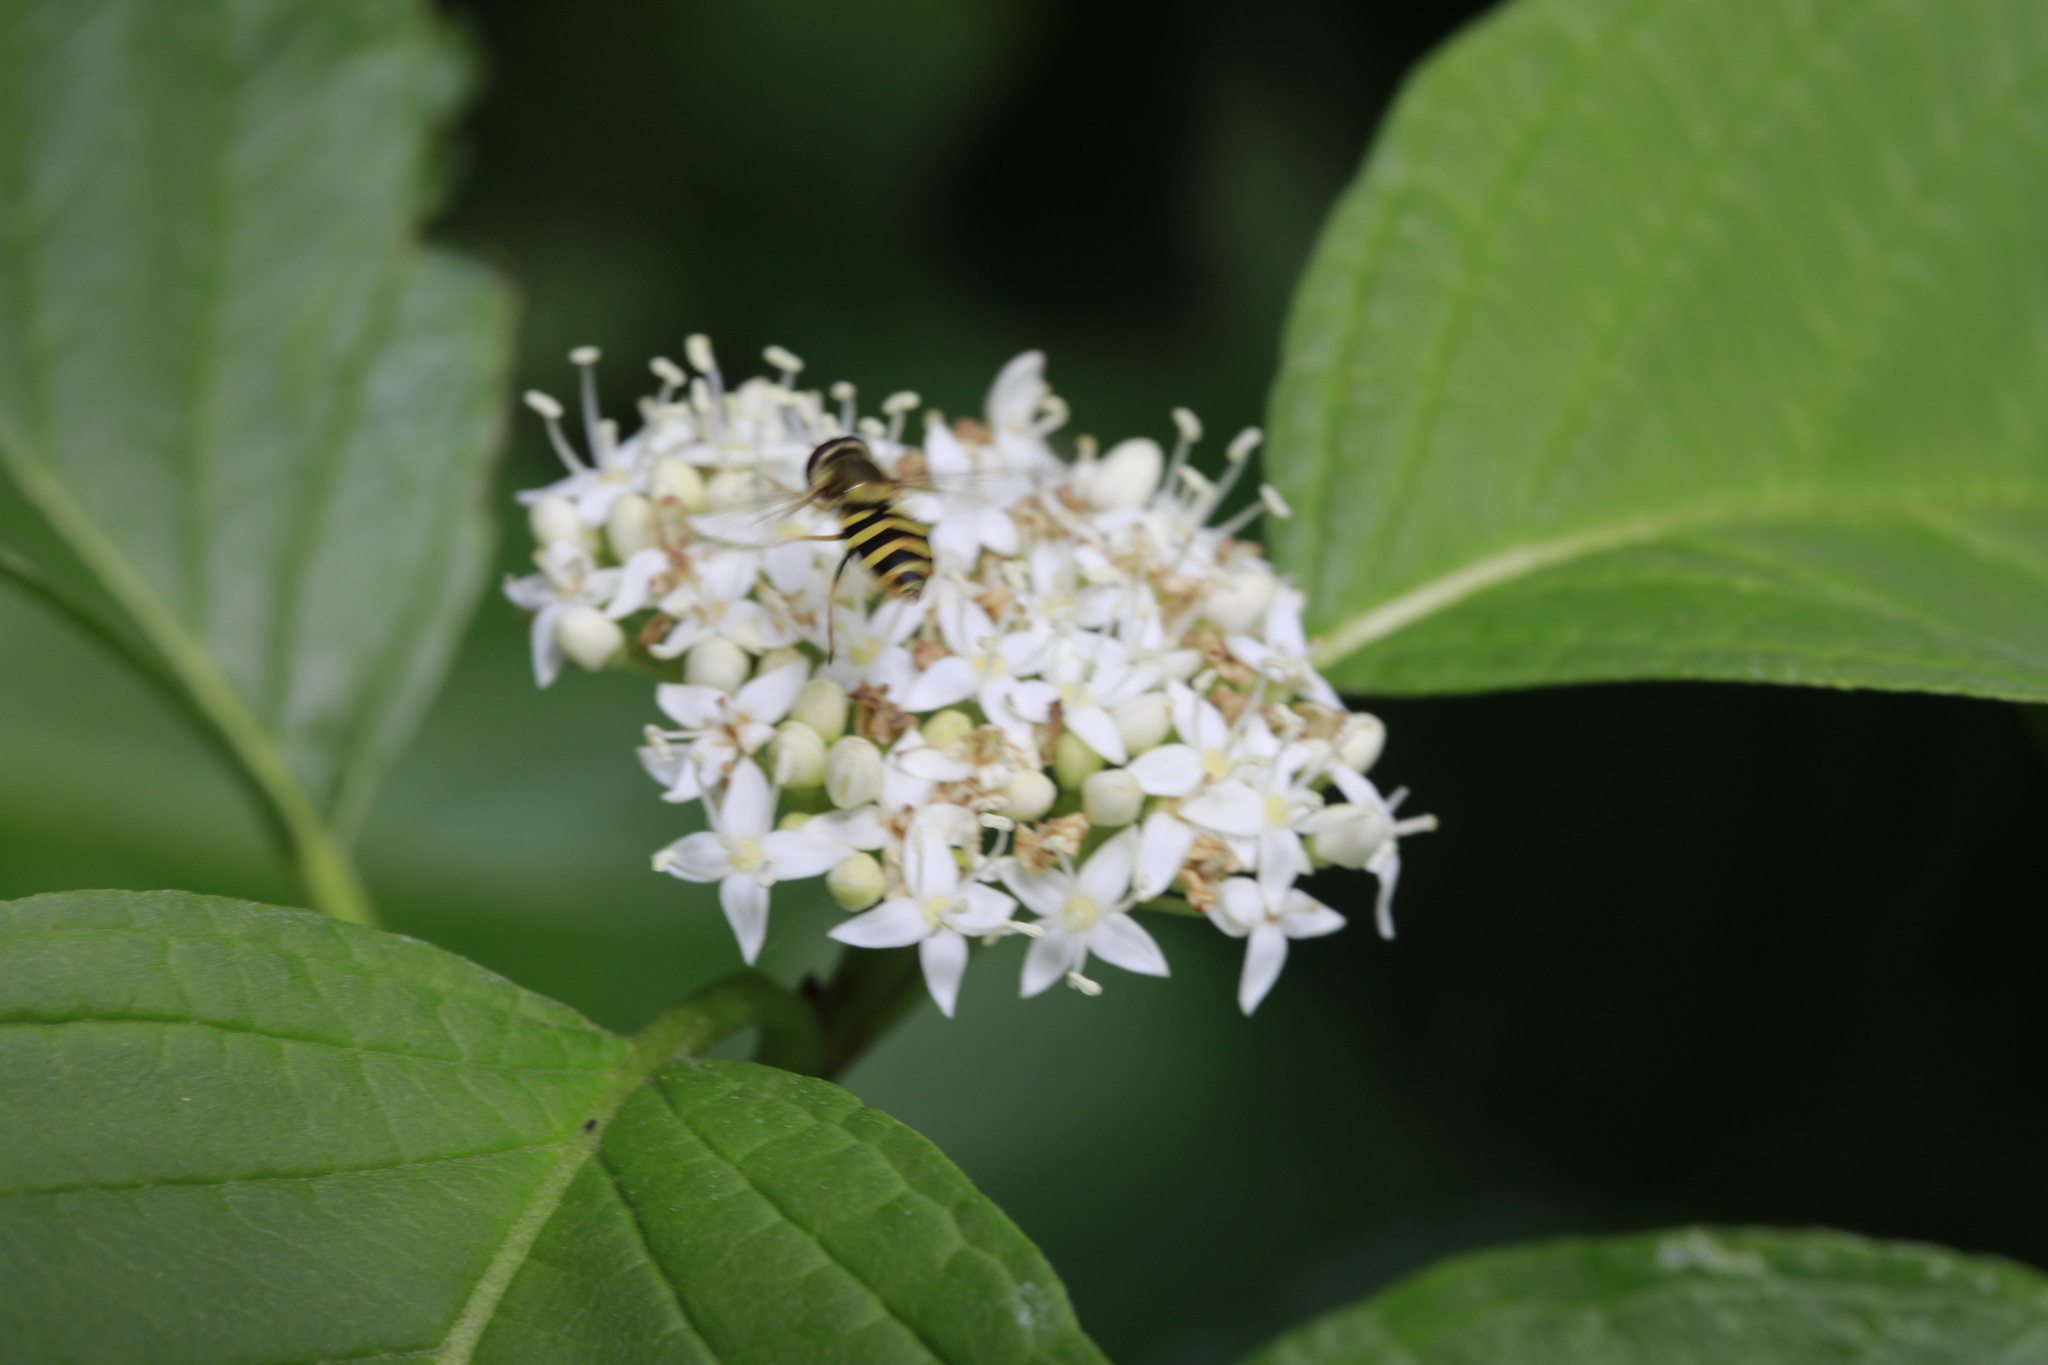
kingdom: Animalia
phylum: Arthropoda
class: Insecta
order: Diptera
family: Syrphidae
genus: Syrphus
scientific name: Syrphus
